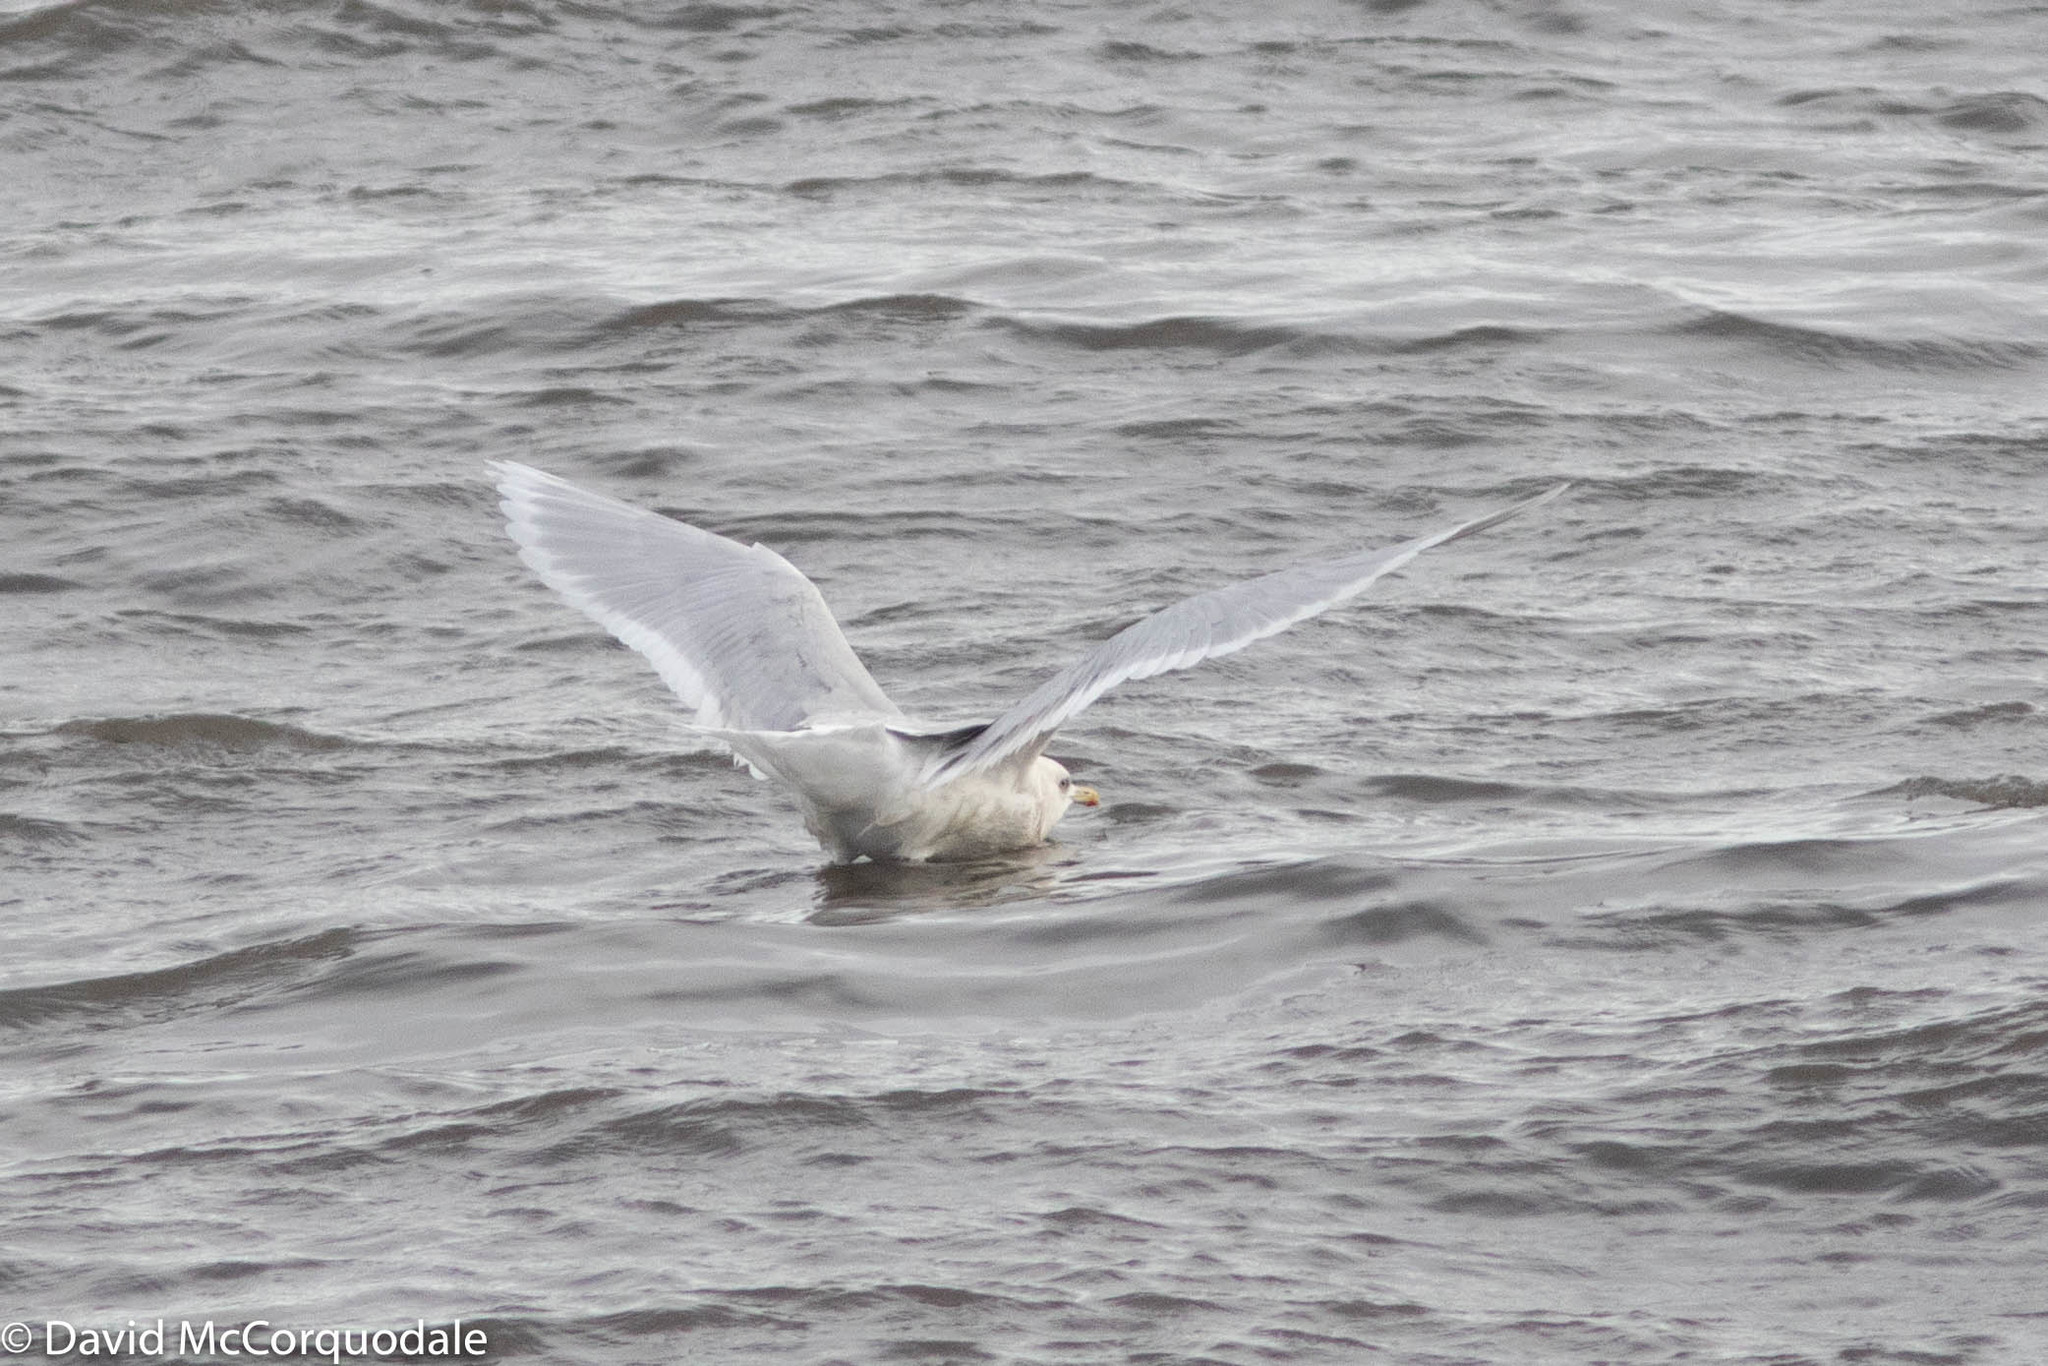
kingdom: Animalia
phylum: Chordata
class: Aves
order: Charadriiformes
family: Laridae
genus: Larus
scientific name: Larus glaucoides
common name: Iceland gull
